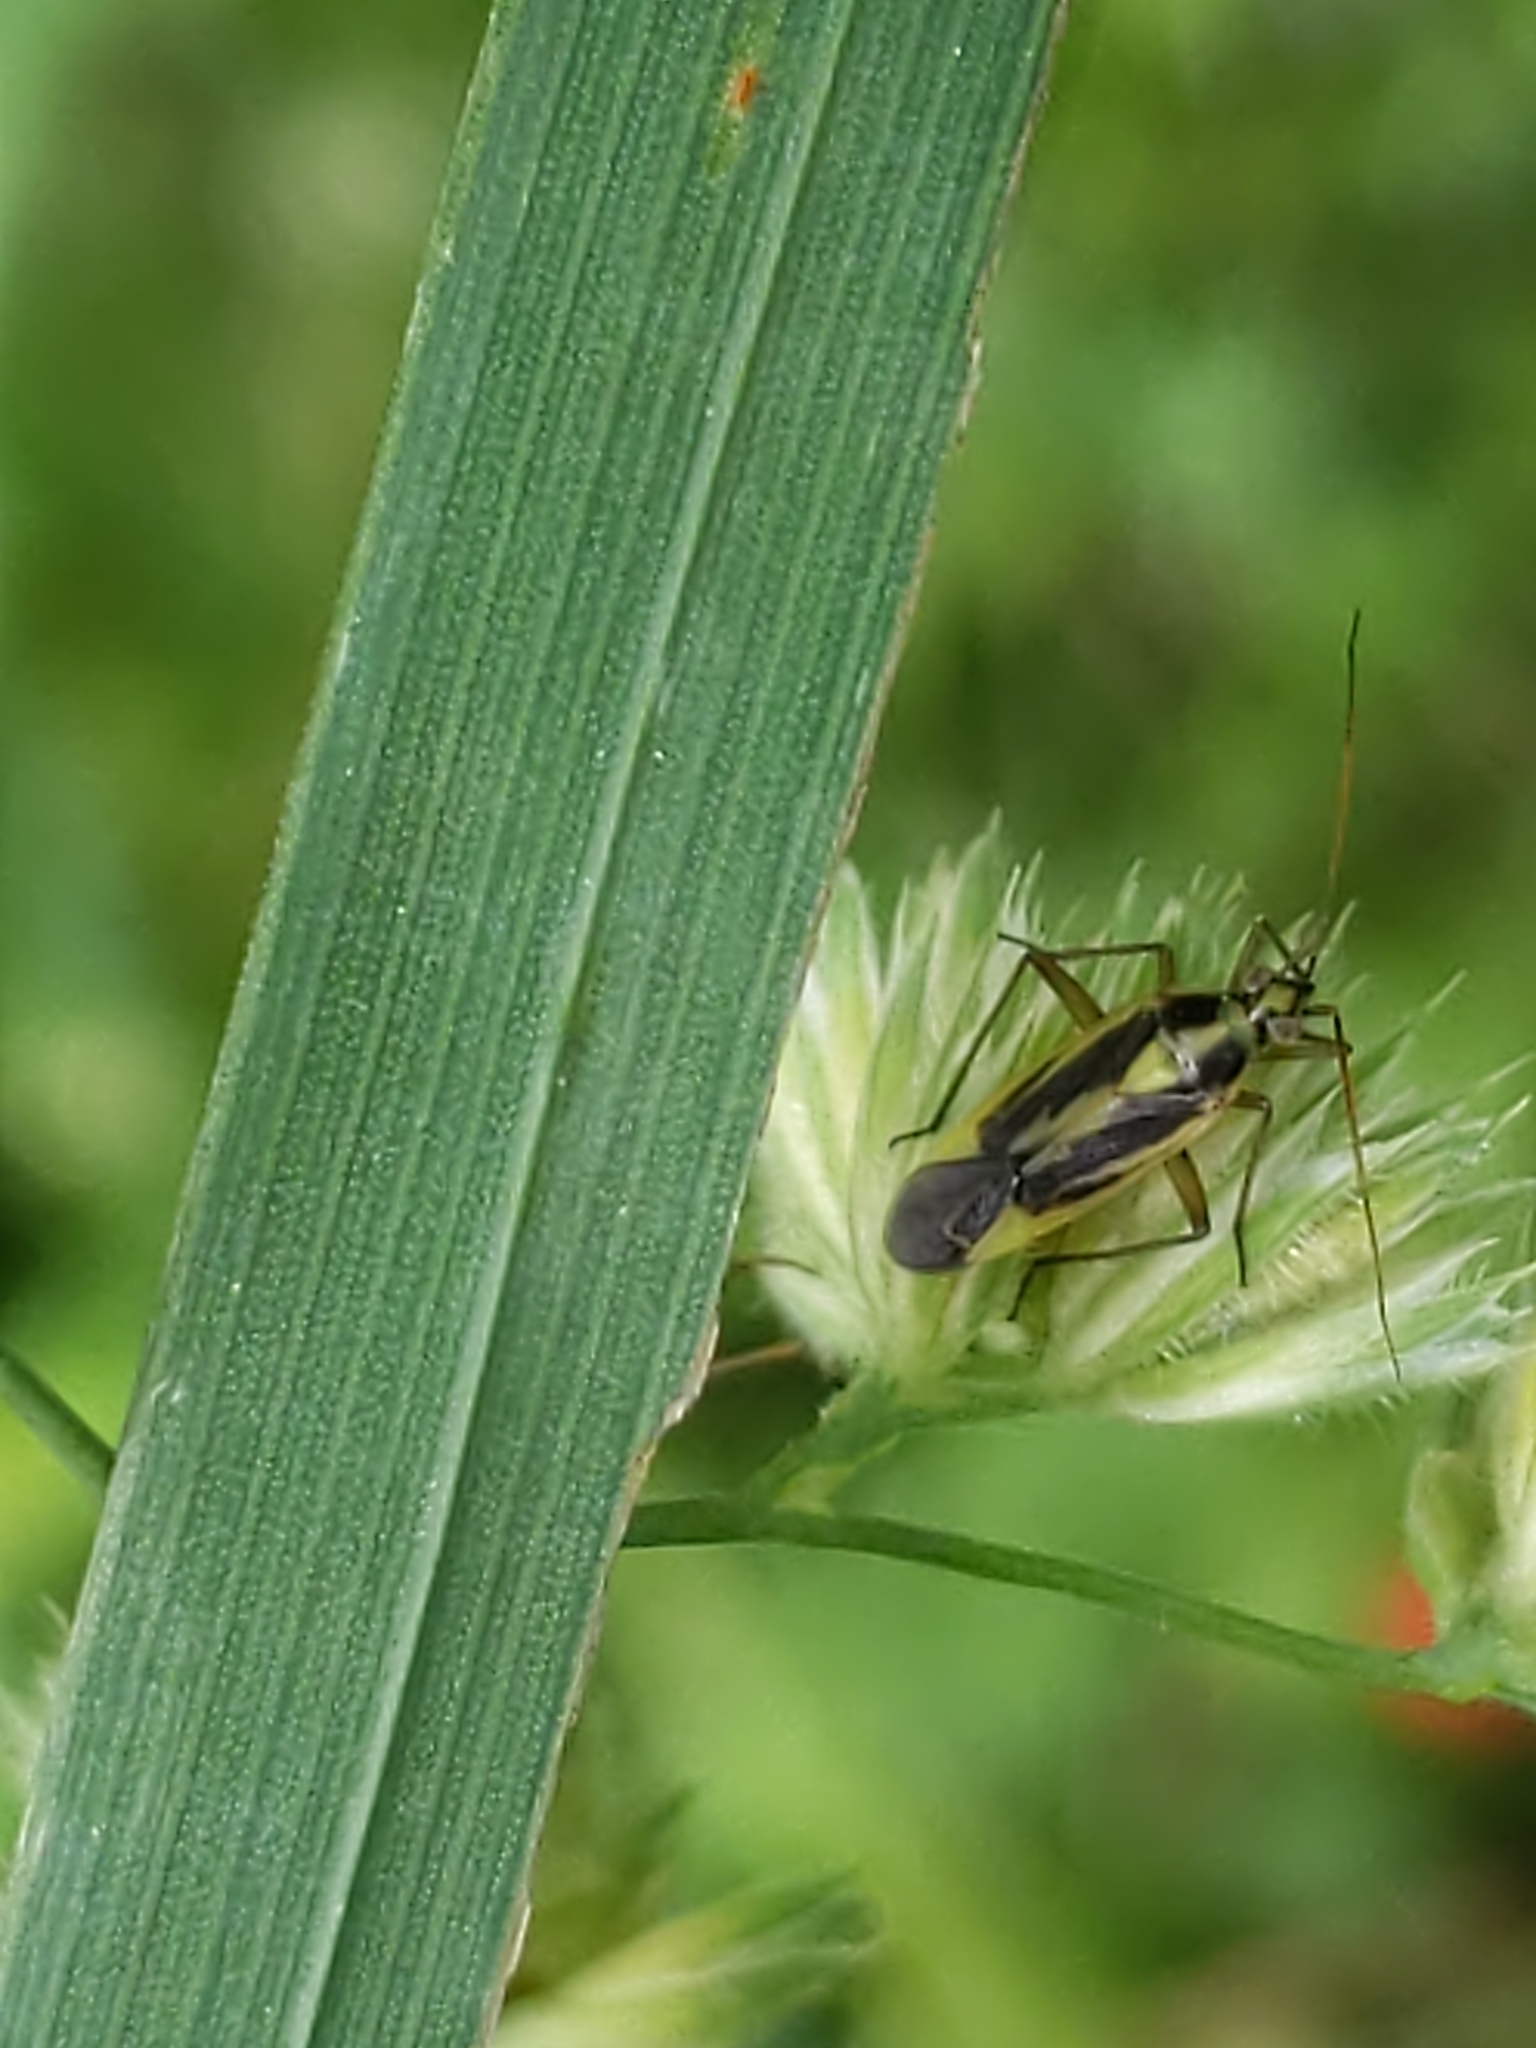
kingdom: Animalia
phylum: Arthropoda
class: Insecta
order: Hemiptera
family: Miridae
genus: Stenotus
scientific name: Stenotus binotatus
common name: Plant bug
